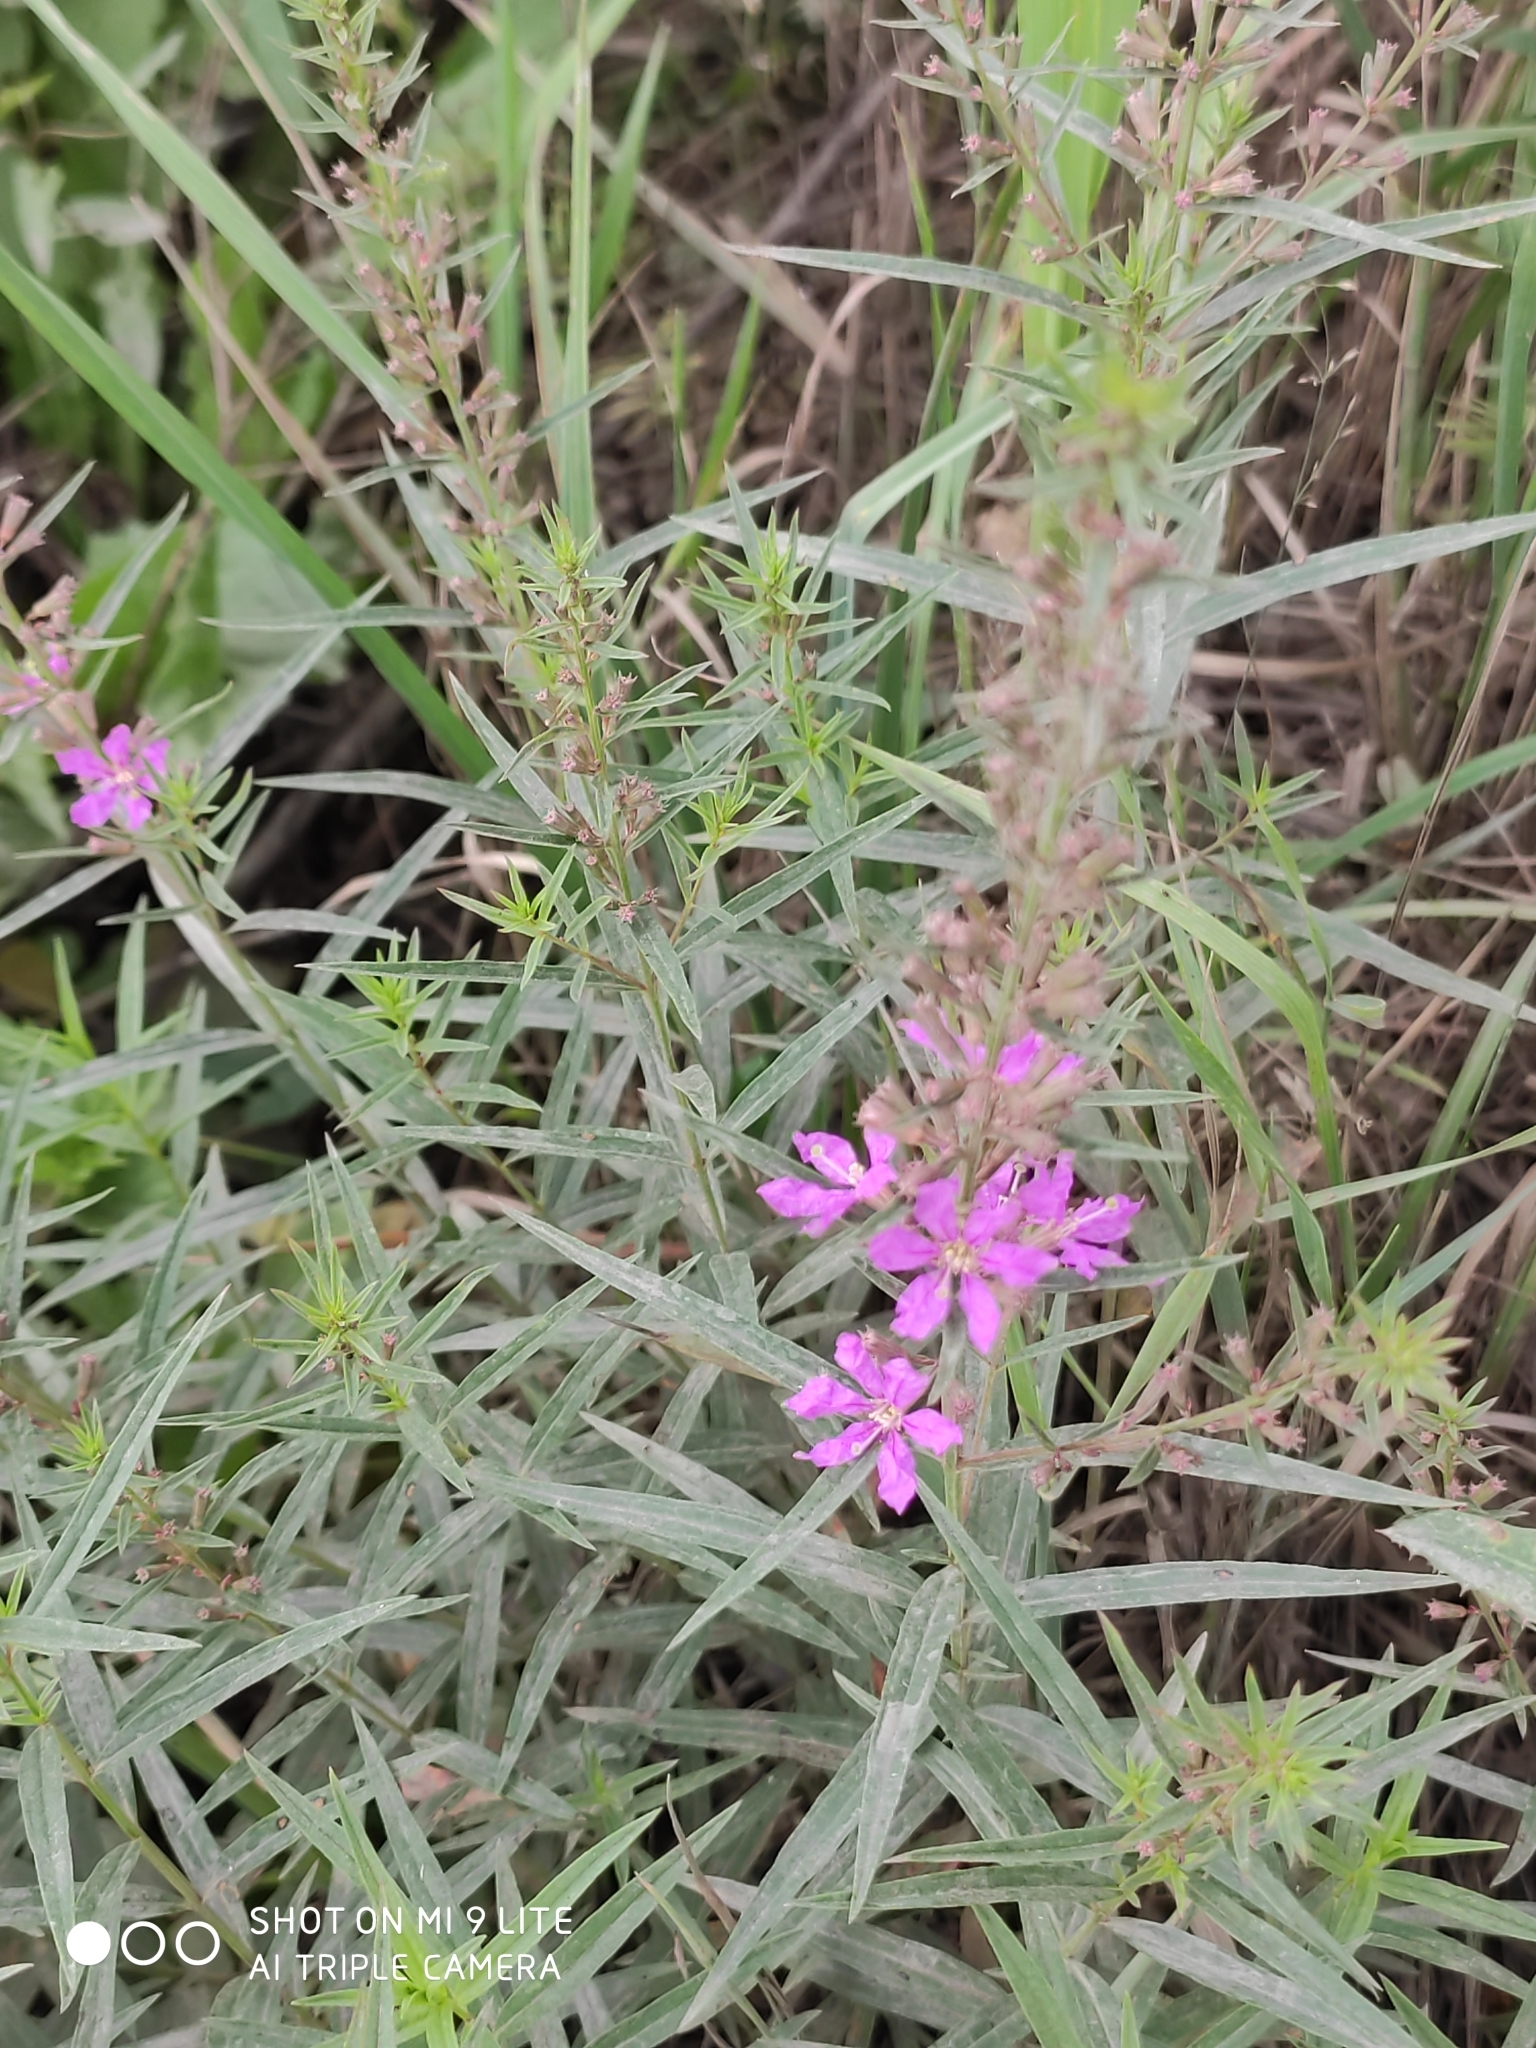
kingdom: Plantae
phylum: Tracheophyta
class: Magnoliopsida
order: Myrtales
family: Lythraceae
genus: Lythrum
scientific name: Lythrum virgatum
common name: European wand loosestrife
